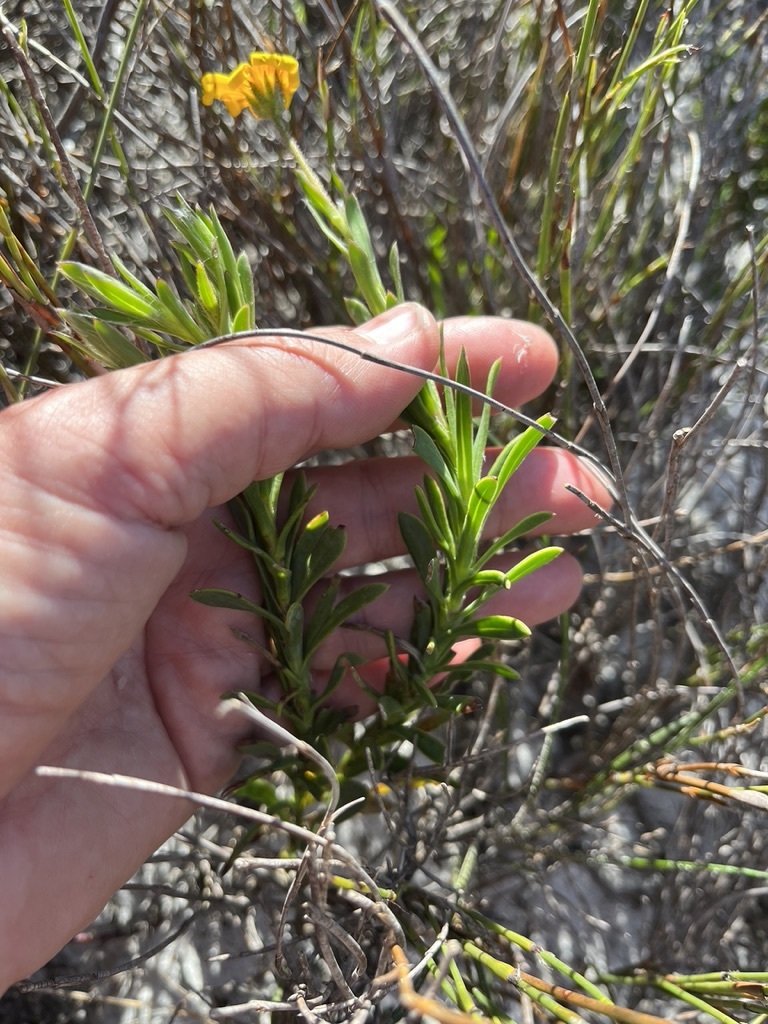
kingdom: Plantae
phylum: Tracheophyta
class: Magnoliopsida
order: Asterales
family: Asteraceae
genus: Osteospermum
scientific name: Osteospermum polygaloides
